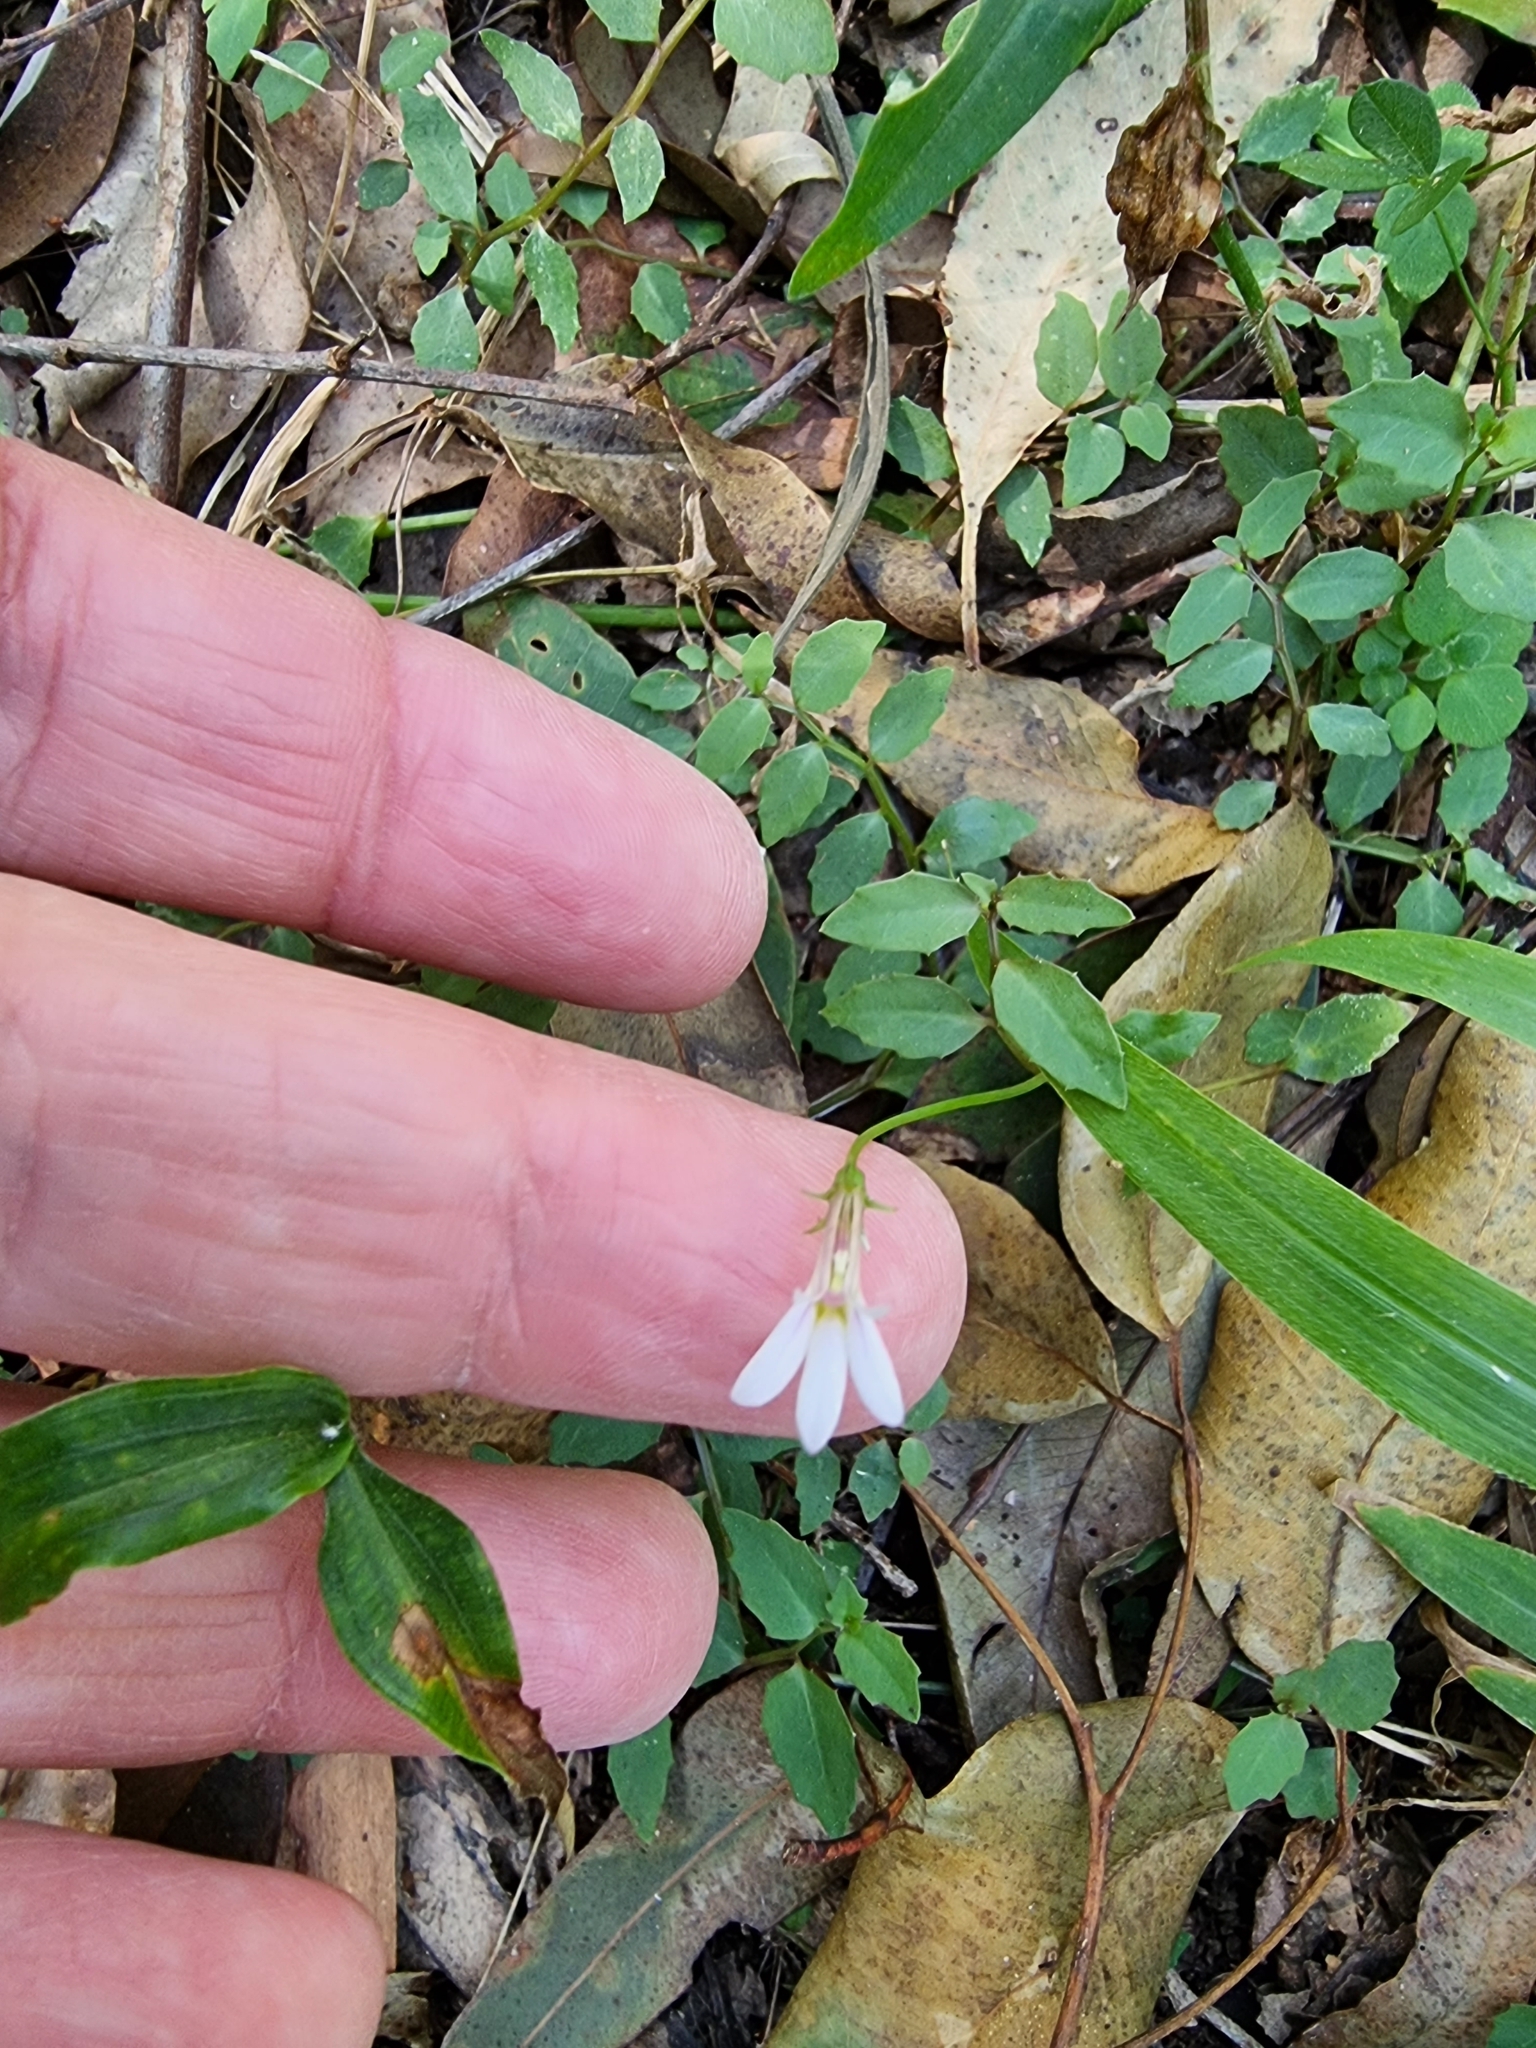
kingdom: Plantae
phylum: Tracheophyta
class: Magnoliopsida
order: Asterales
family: Campanulaceae
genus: Lobelia
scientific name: Lobelia purpurascens
